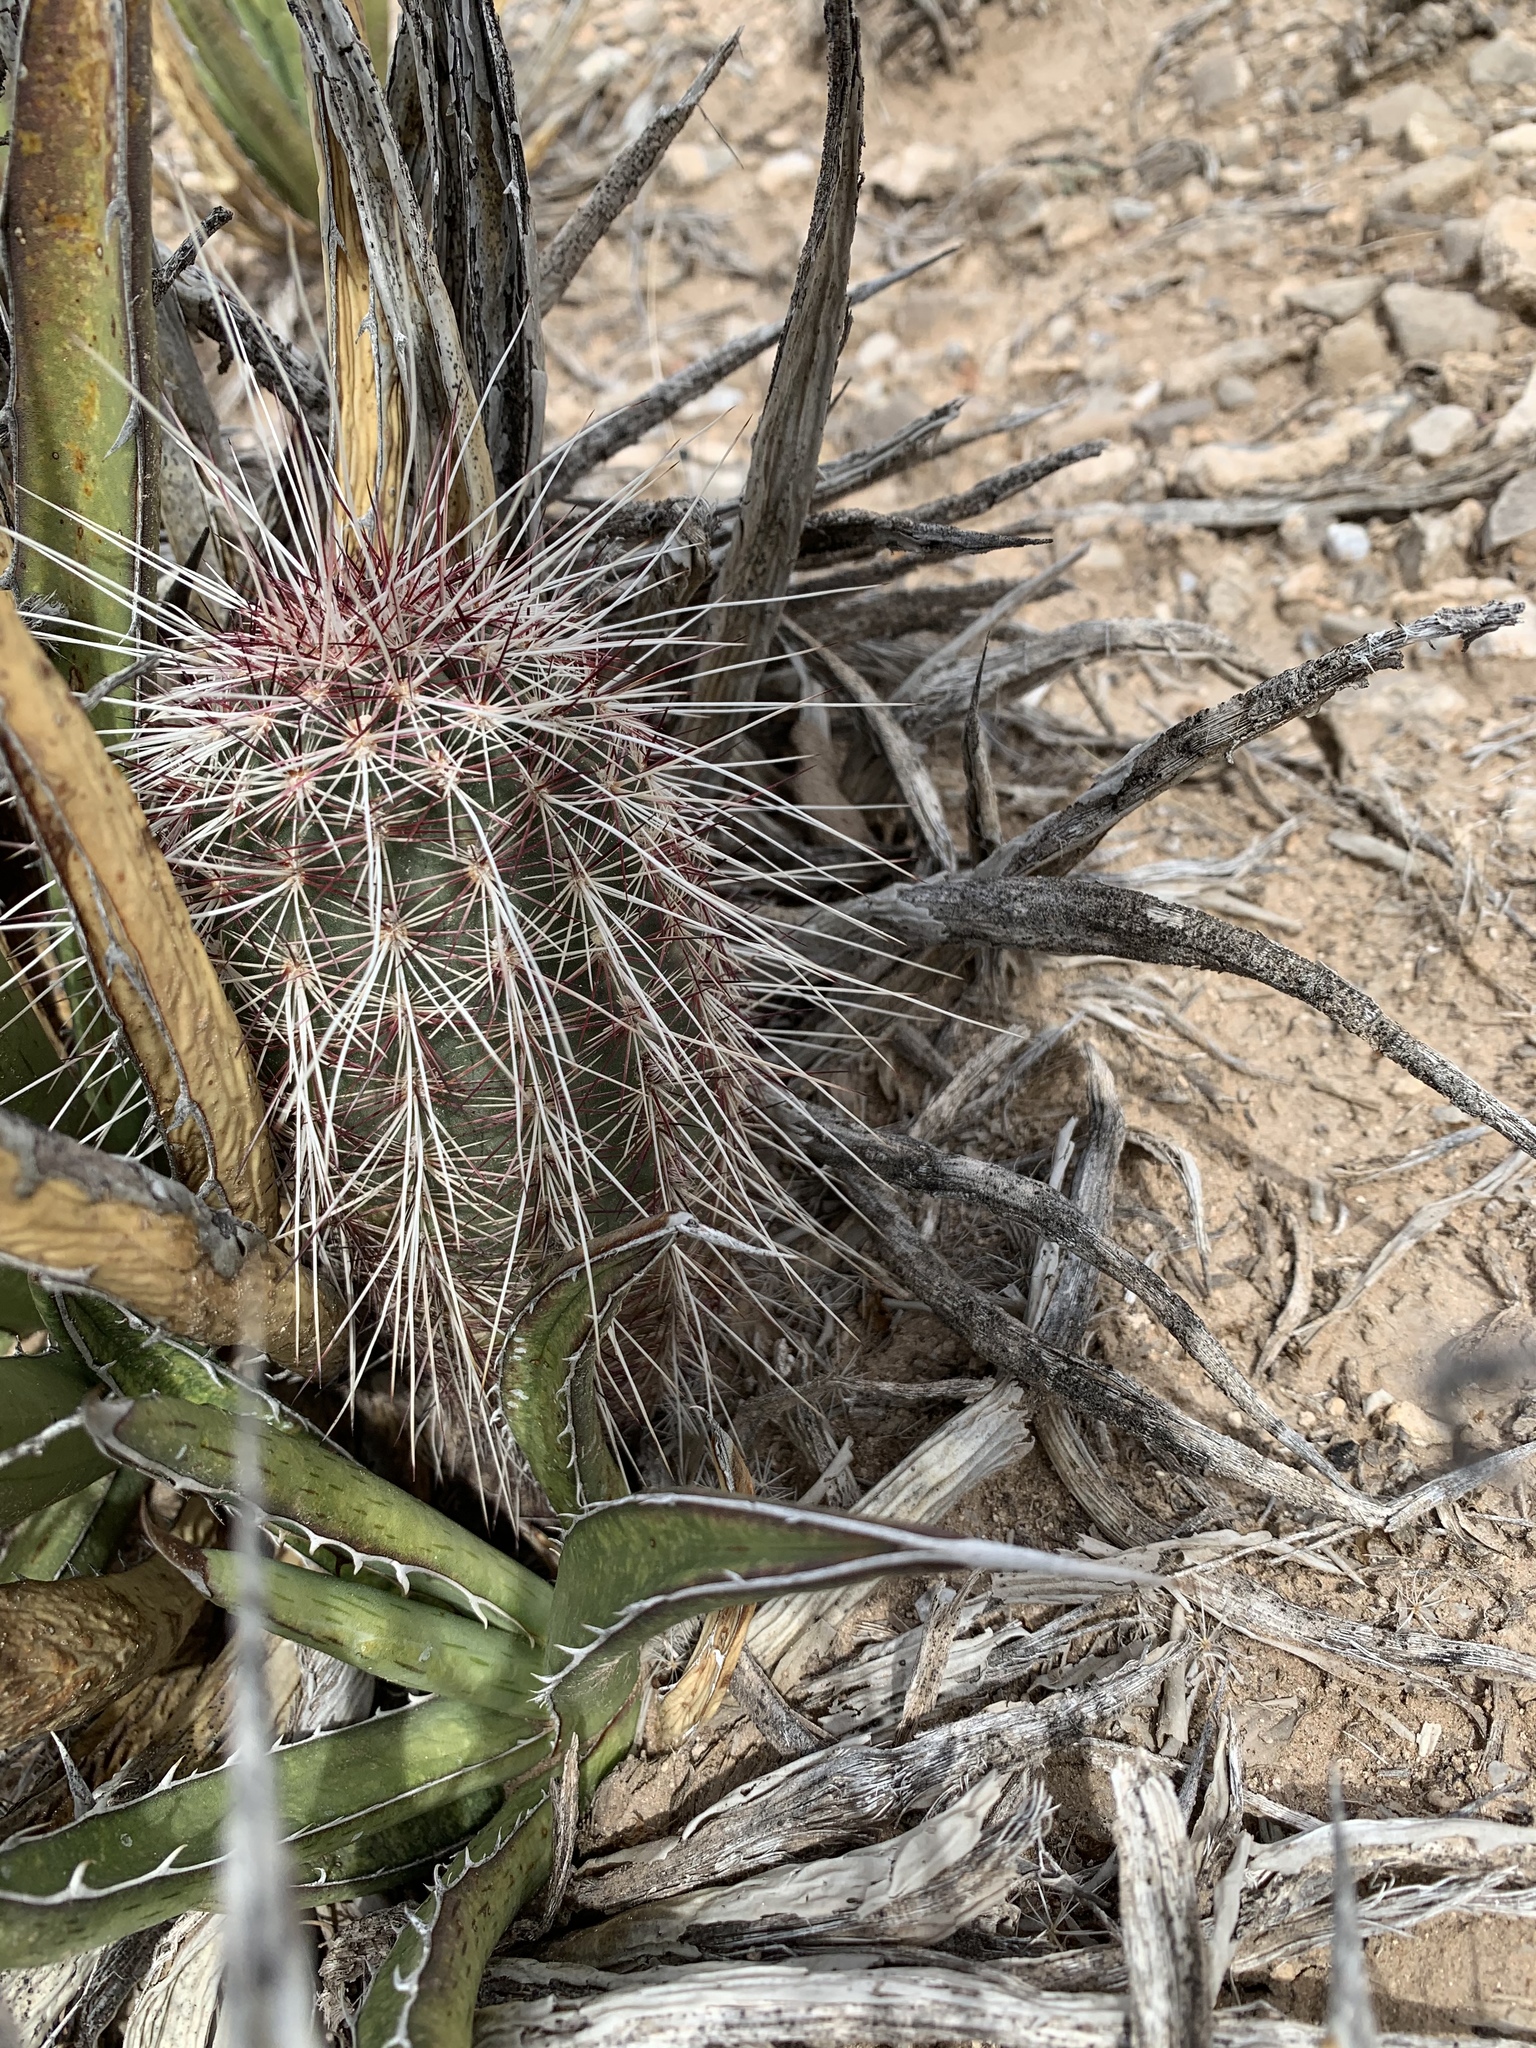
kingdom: Plantae
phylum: Tracheophyta
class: Magnoliopsida
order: Caryophyllales
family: Cactaceae
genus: Echinocereus
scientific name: Echinocereus viridiflorus
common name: Nylon hedgehog cactus
